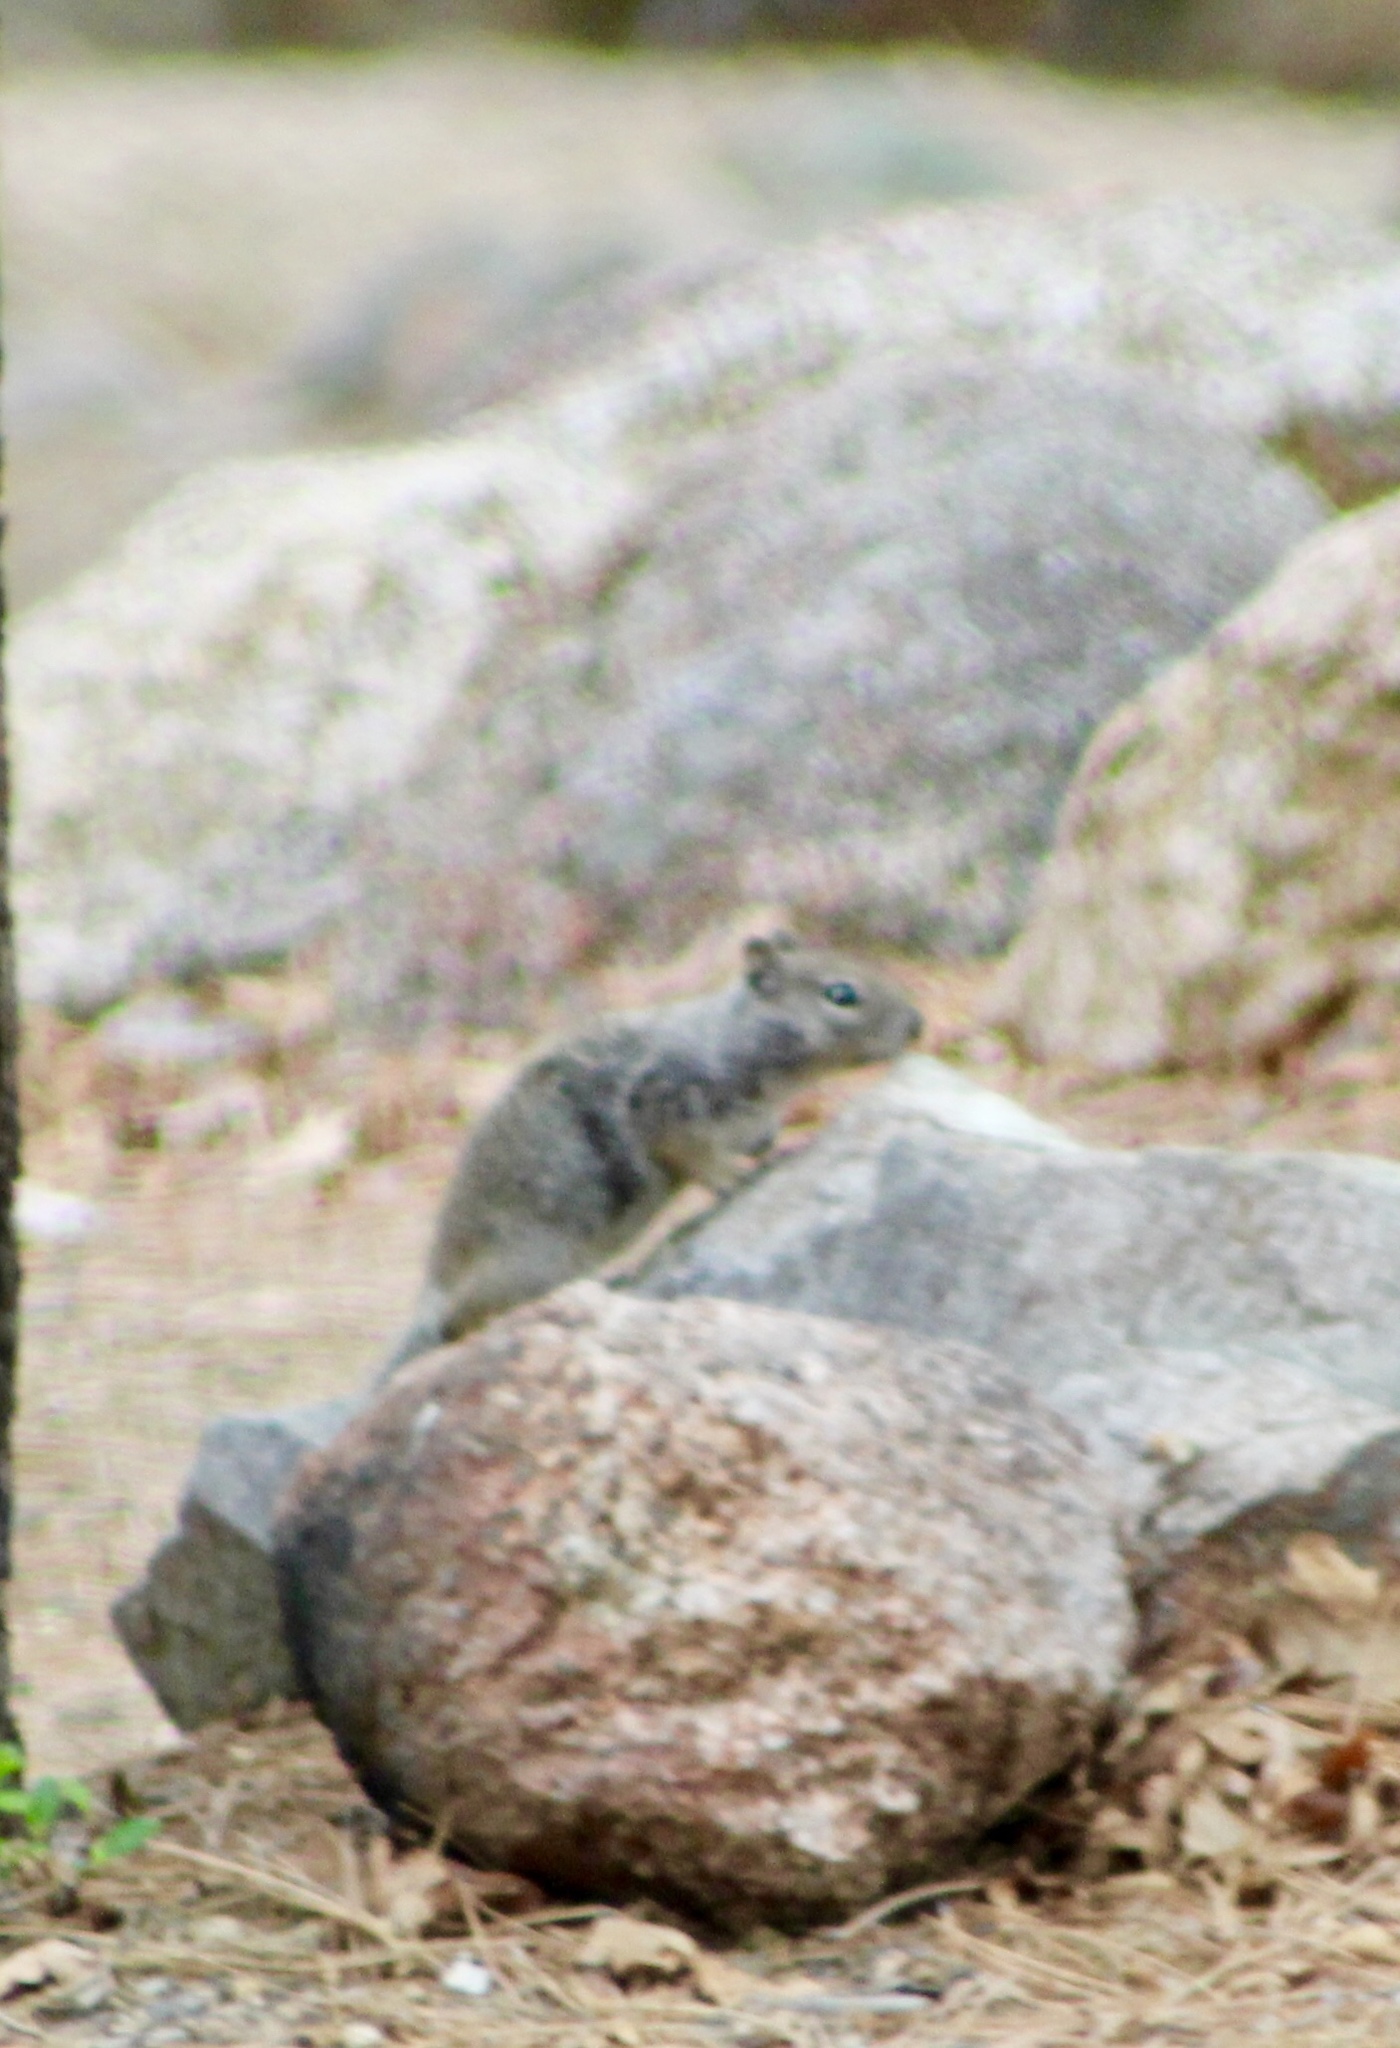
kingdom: Animalia
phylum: Chordata
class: Mammalia
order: Rodentia
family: Sciuridae
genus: Otospermophilus
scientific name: Otospermophilus variegatus
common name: Rock squirrel
